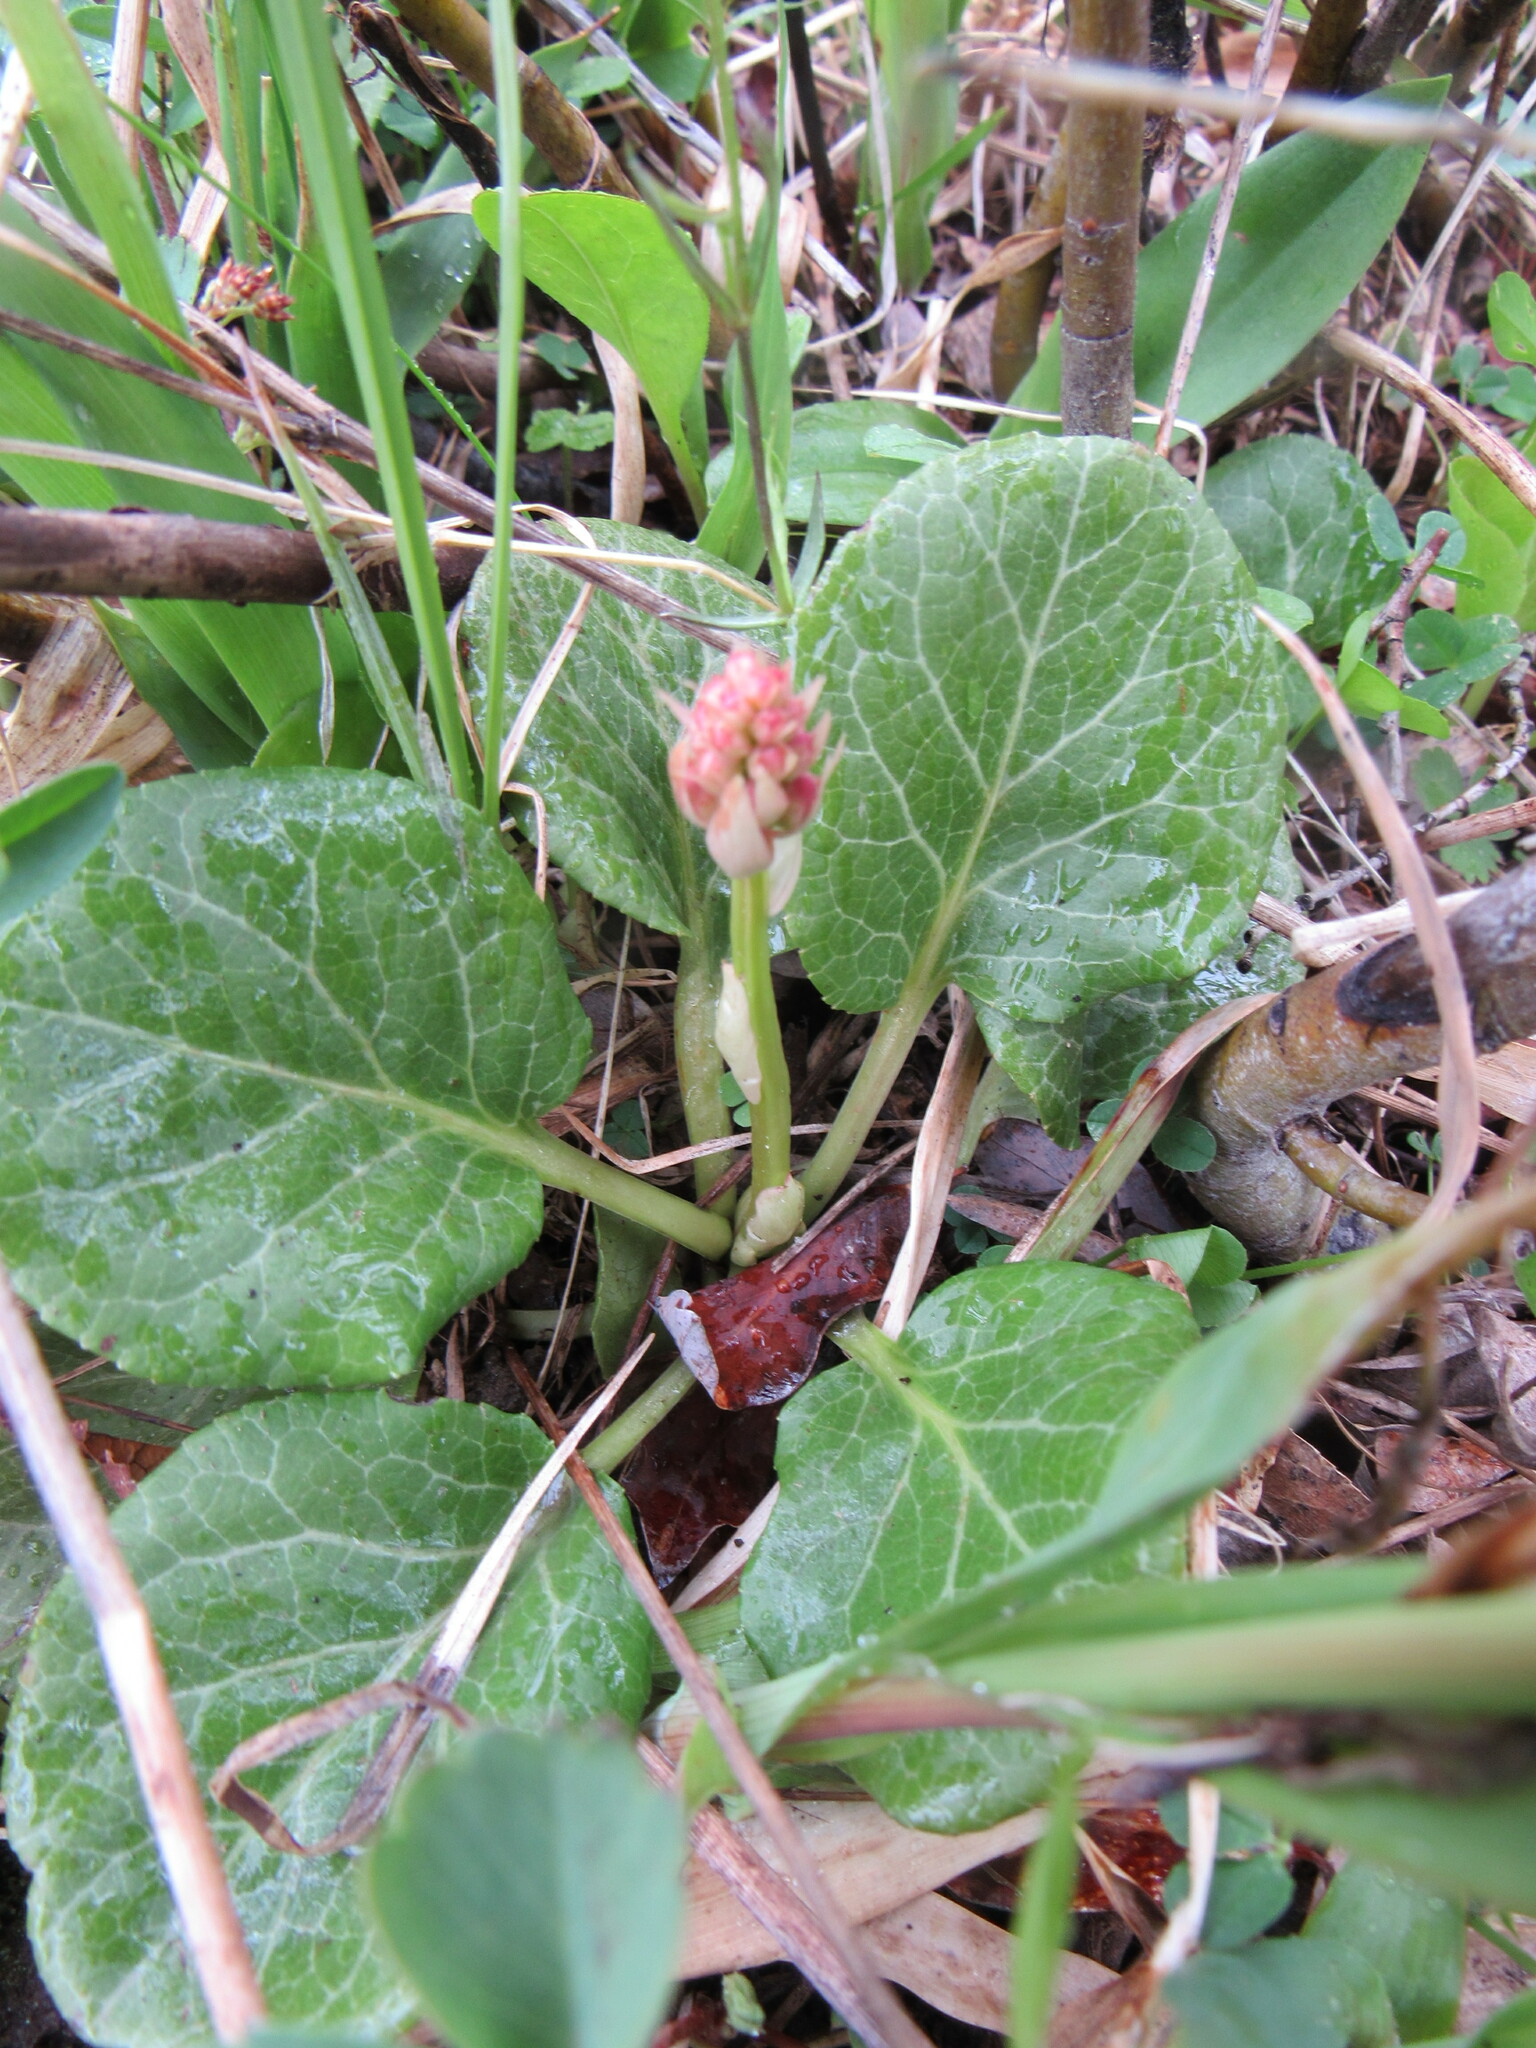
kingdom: Plantae
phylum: Tracheophyta
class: Magnoliopsida
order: Ericales
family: Ericaceae
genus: Pyrola
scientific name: Pyrola asarifolia
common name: Bog wintergreen
